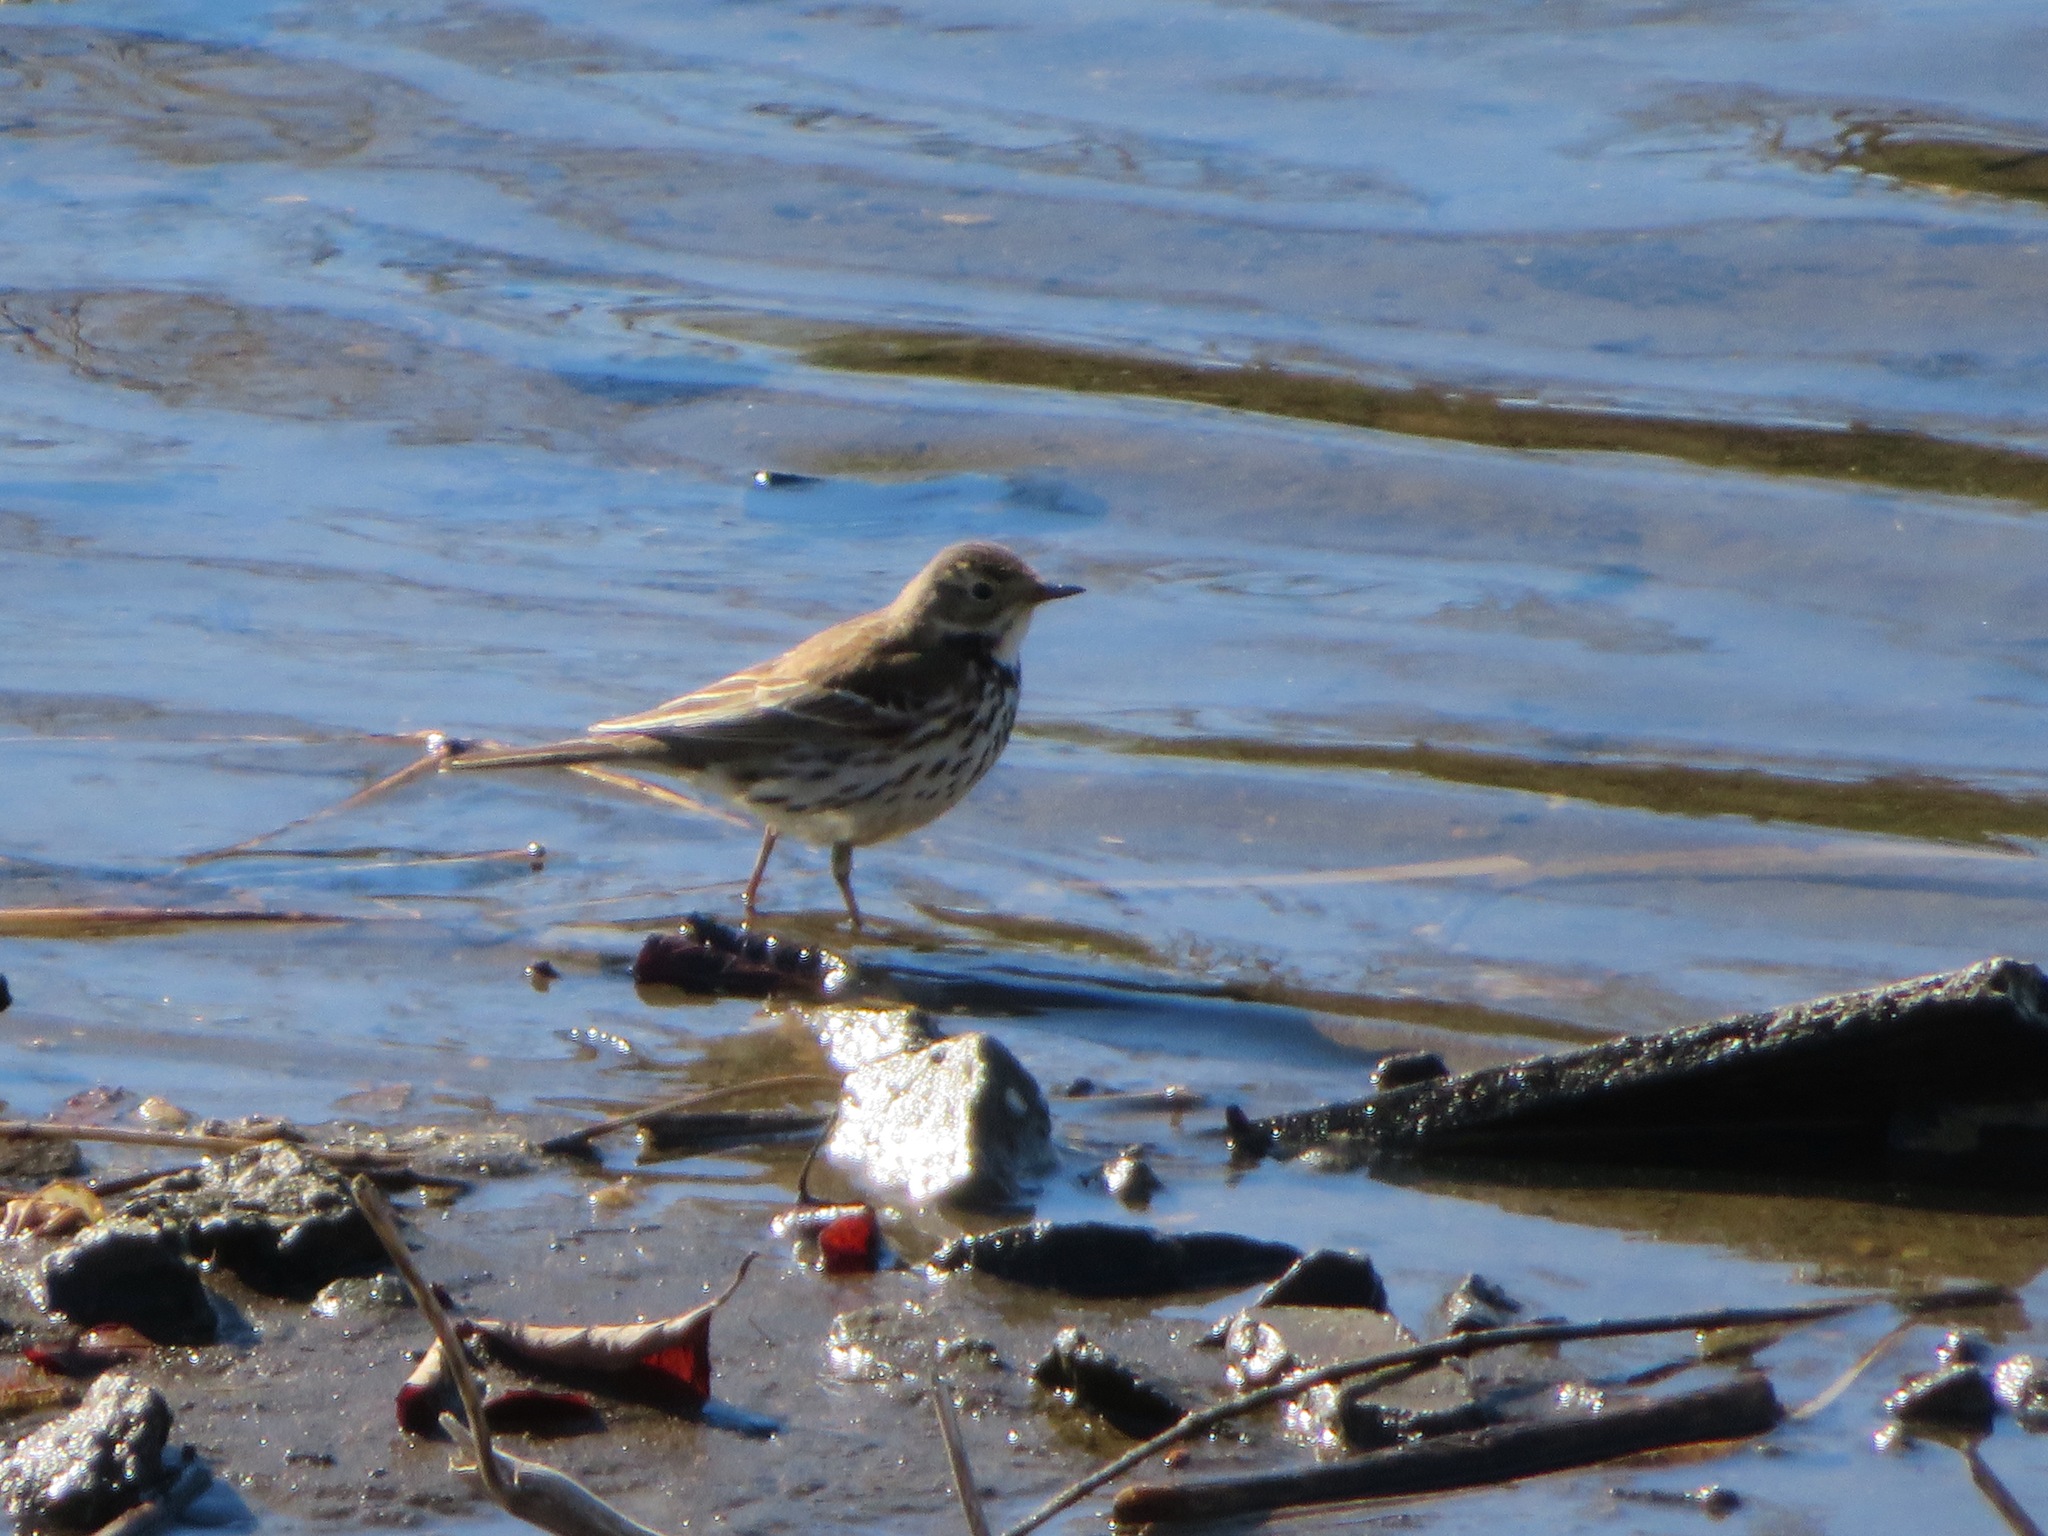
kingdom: Animalia
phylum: Chordata
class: Aves
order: Passeriformes
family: Motacillidae
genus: Anthus
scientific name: Anthus rubescens
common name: Buff-bellied pipit
